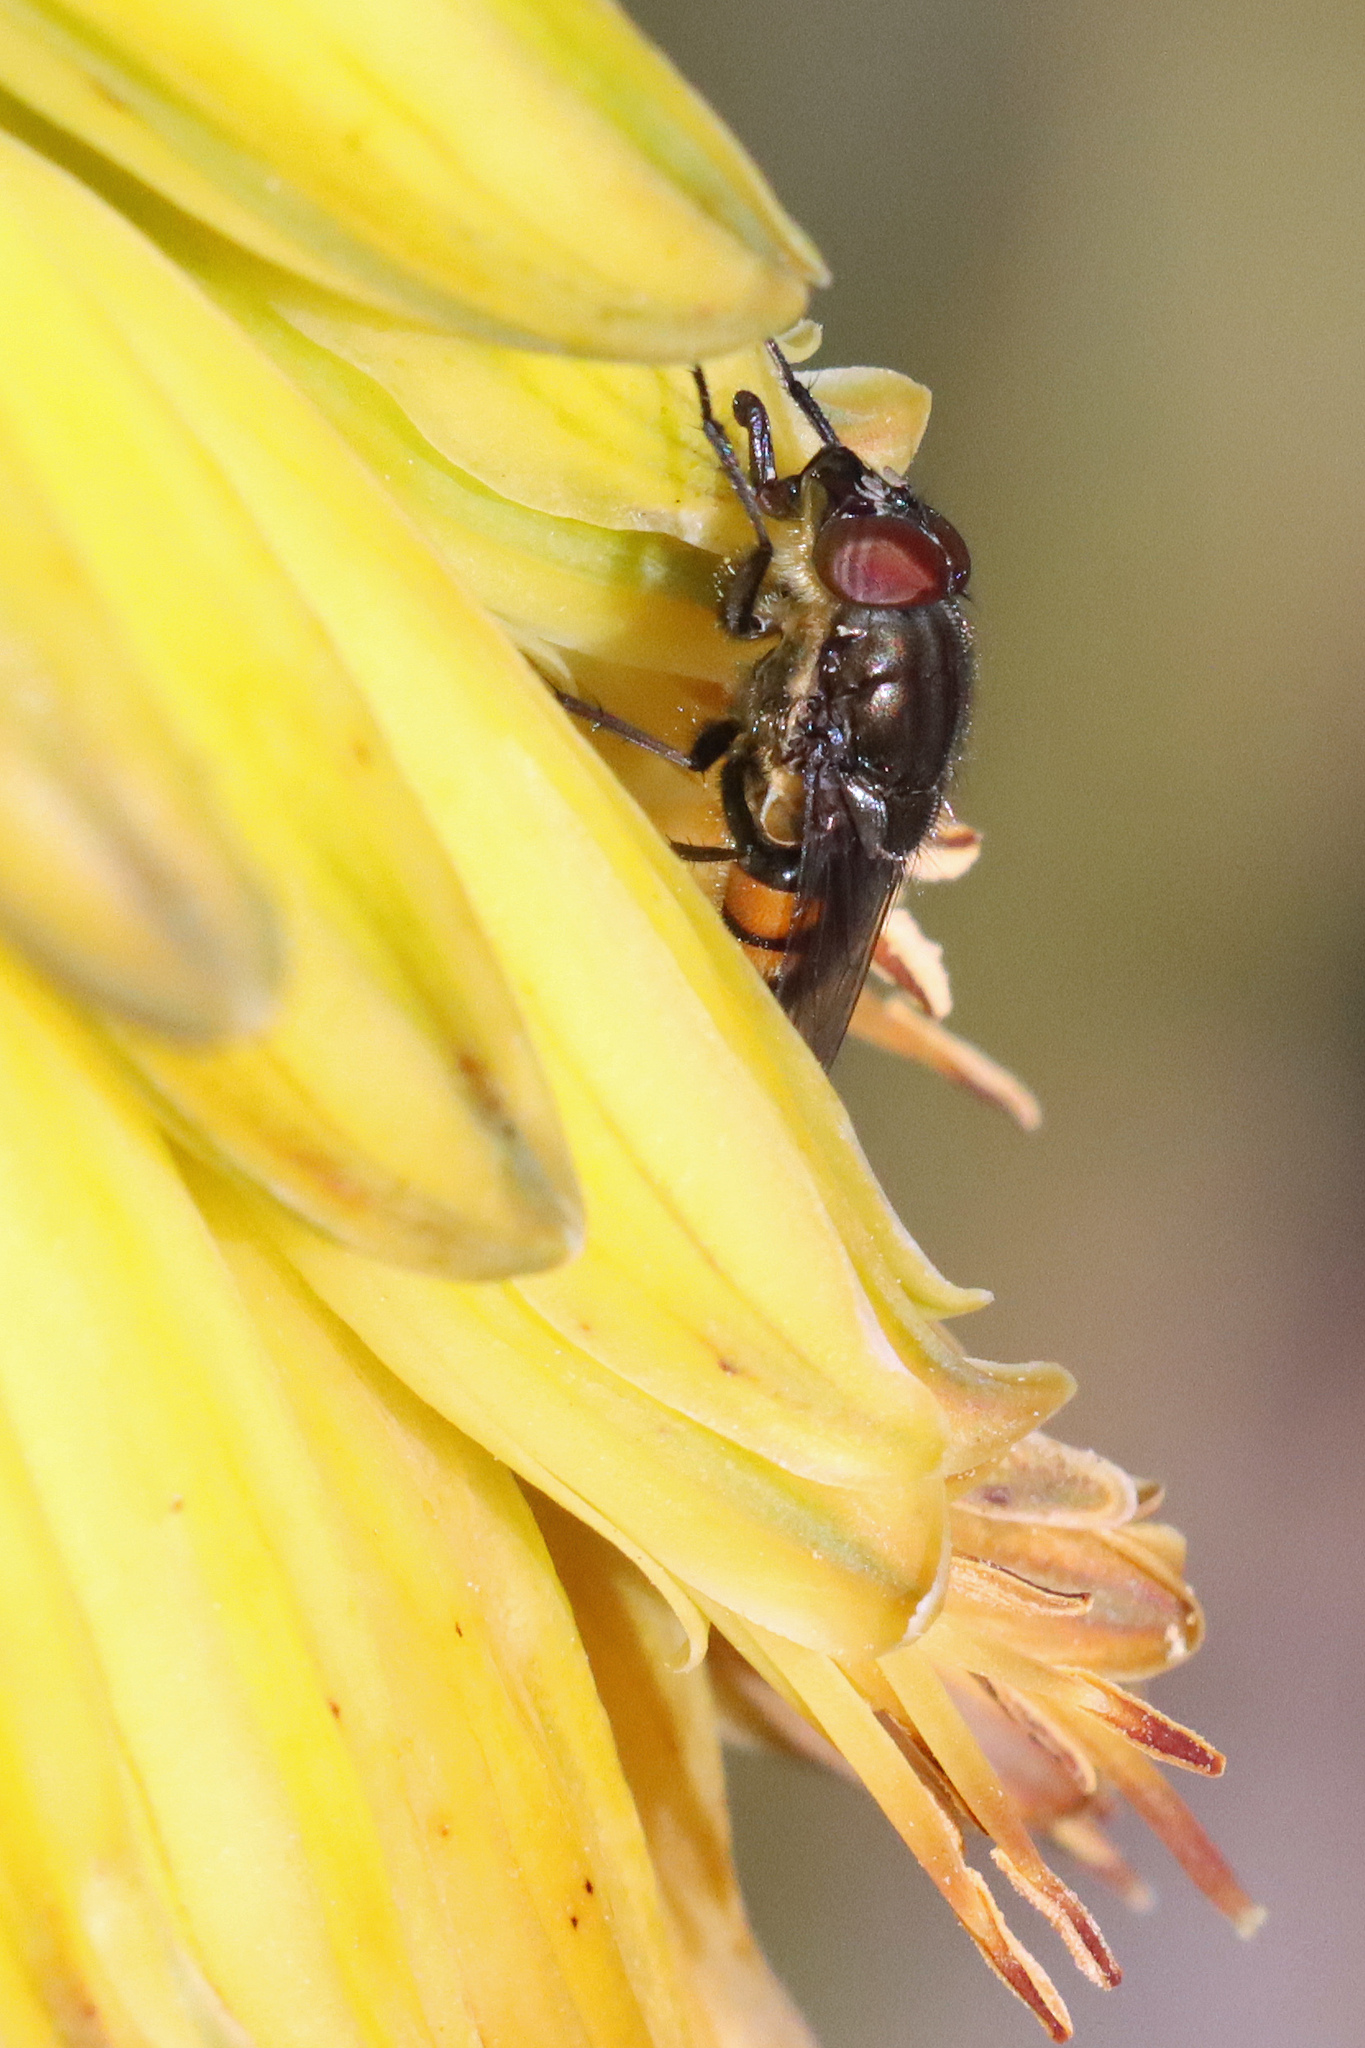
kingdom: Animalia
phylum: Arthropoda
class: Insecta
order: Diptera
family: Calliphoridae
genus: Stomorhina
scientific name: Stomorhina lunata
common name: Locust blowfly
